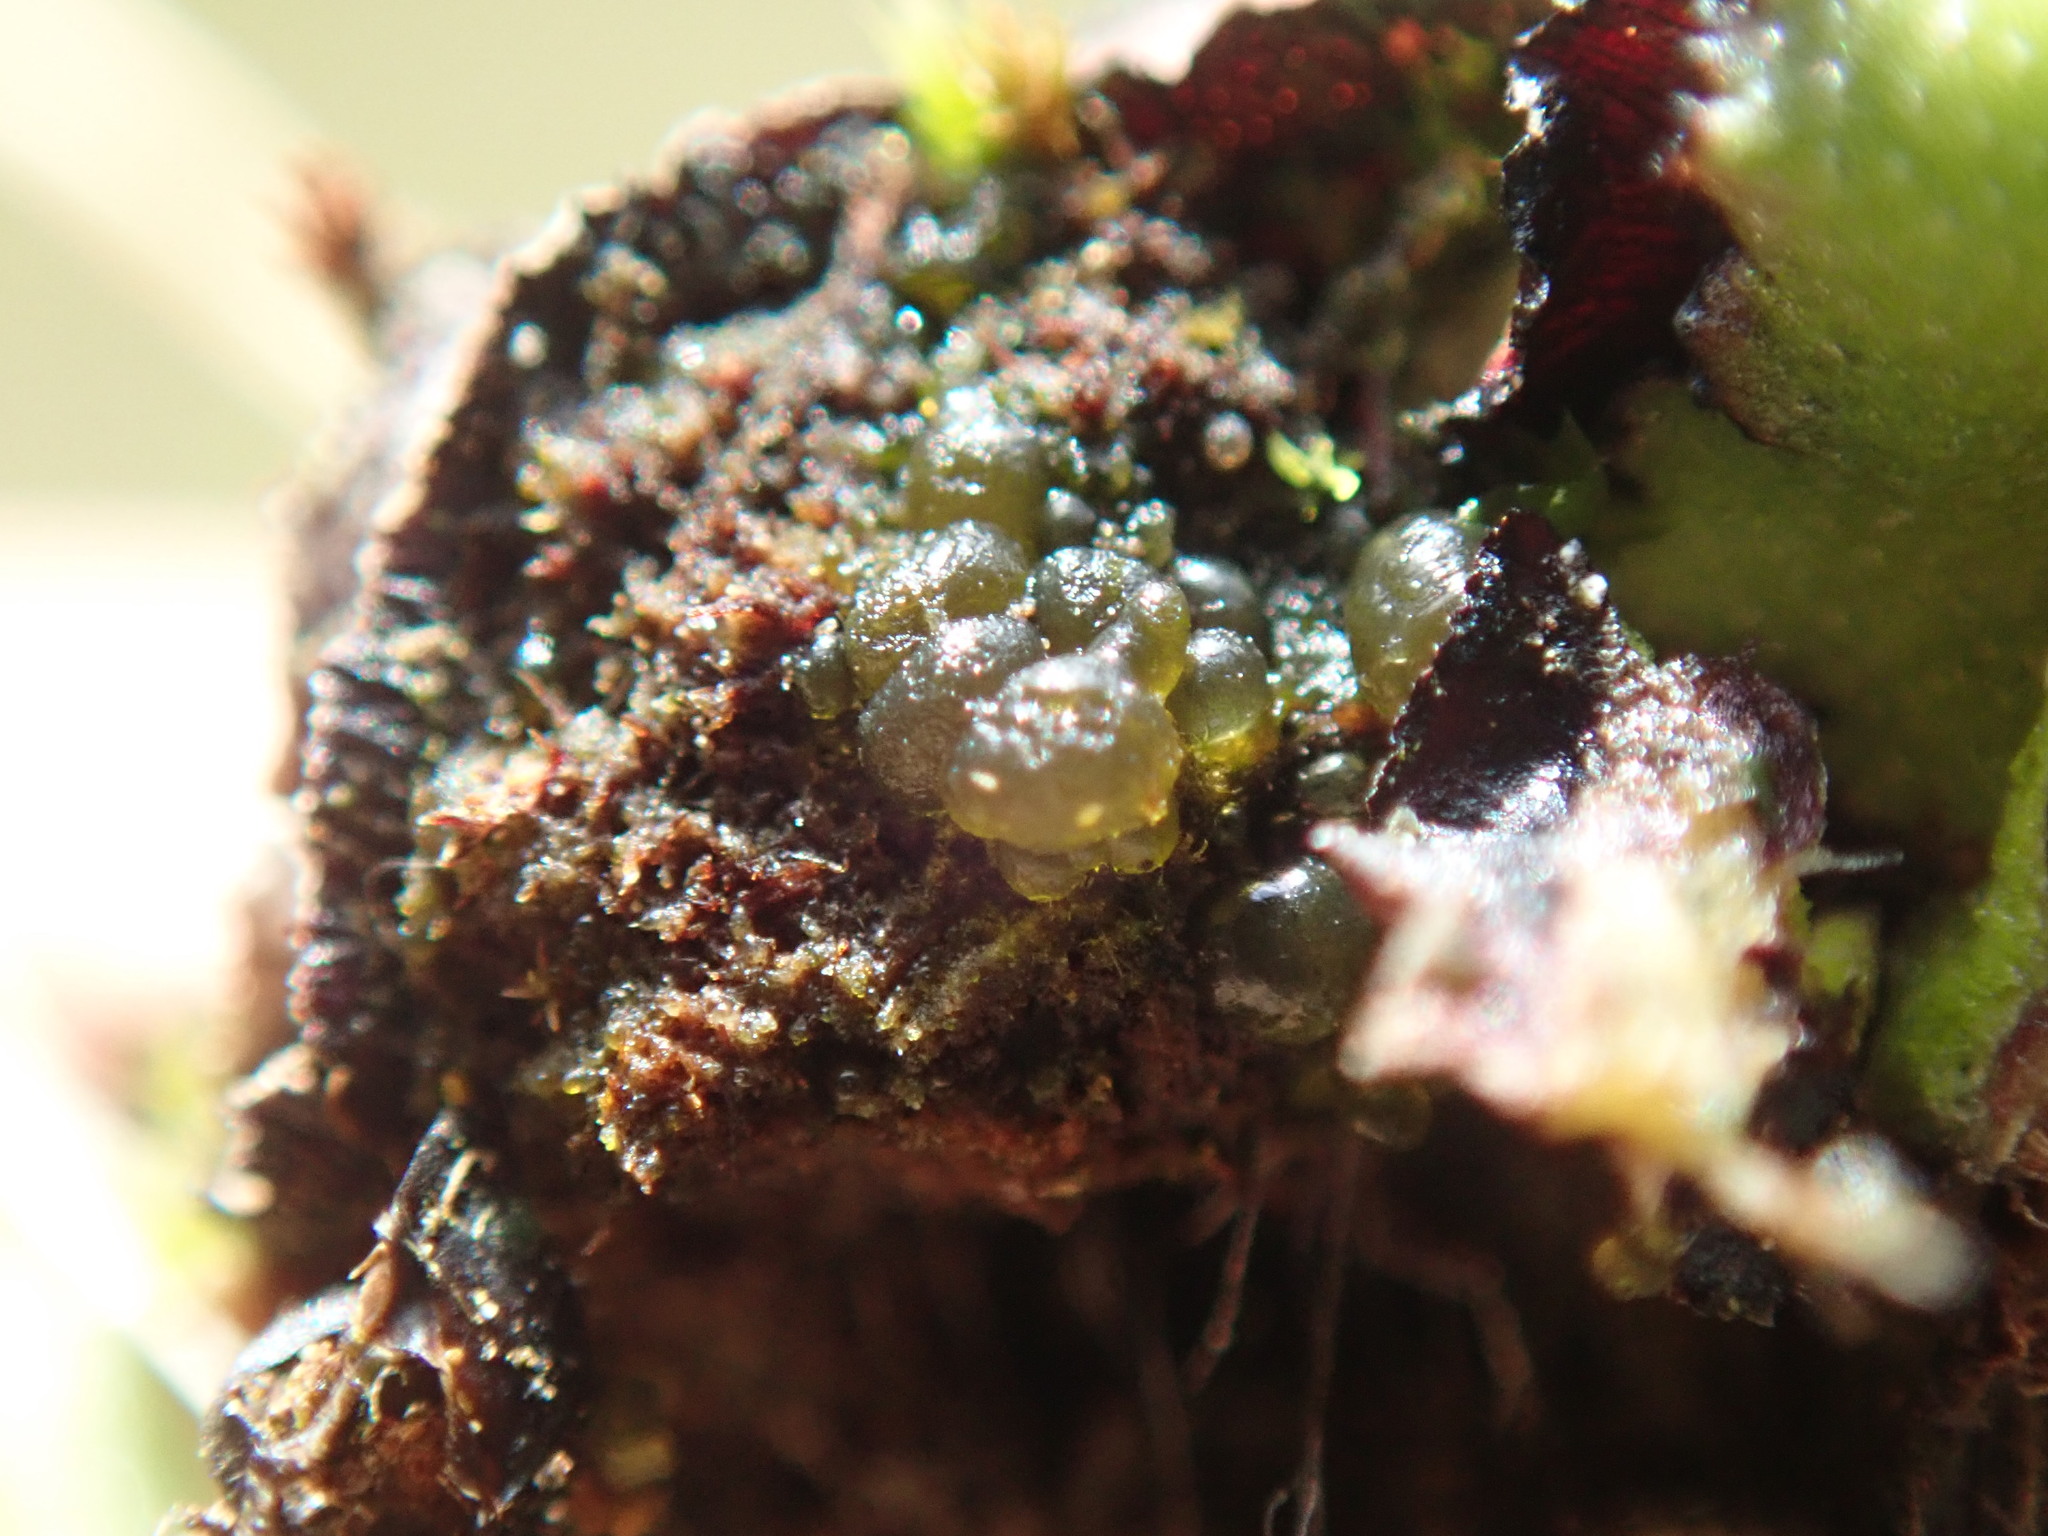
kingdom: Bacteria
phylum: Cyanobacteria
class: Cyanobacteriia
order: Cyanobacteriales
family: Nostocaceae
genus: Nostoc
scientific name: Nostoc
